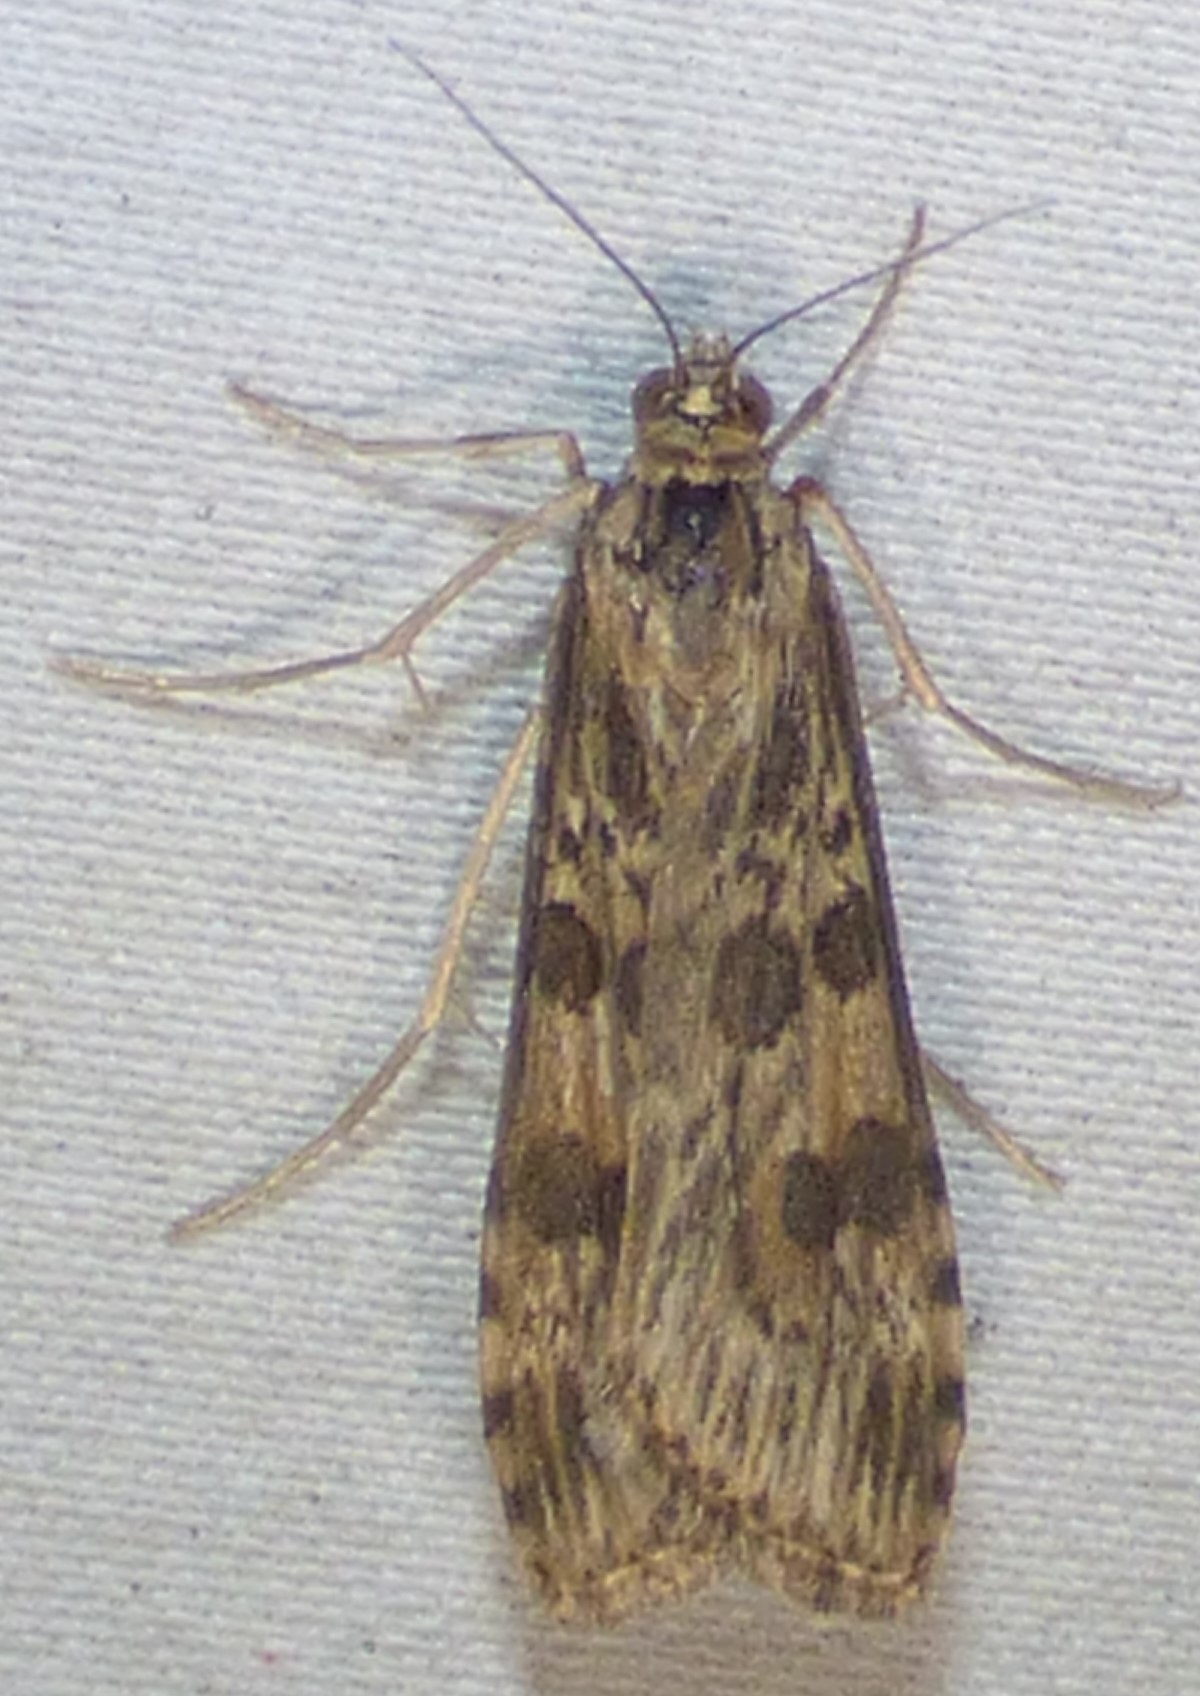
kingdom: Animalia
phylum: Arthropoda
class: Insecta
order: Lepidoptera
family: Crambidae
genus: Nomophila
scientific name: Nomophila nearctica
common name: American rush veneer
